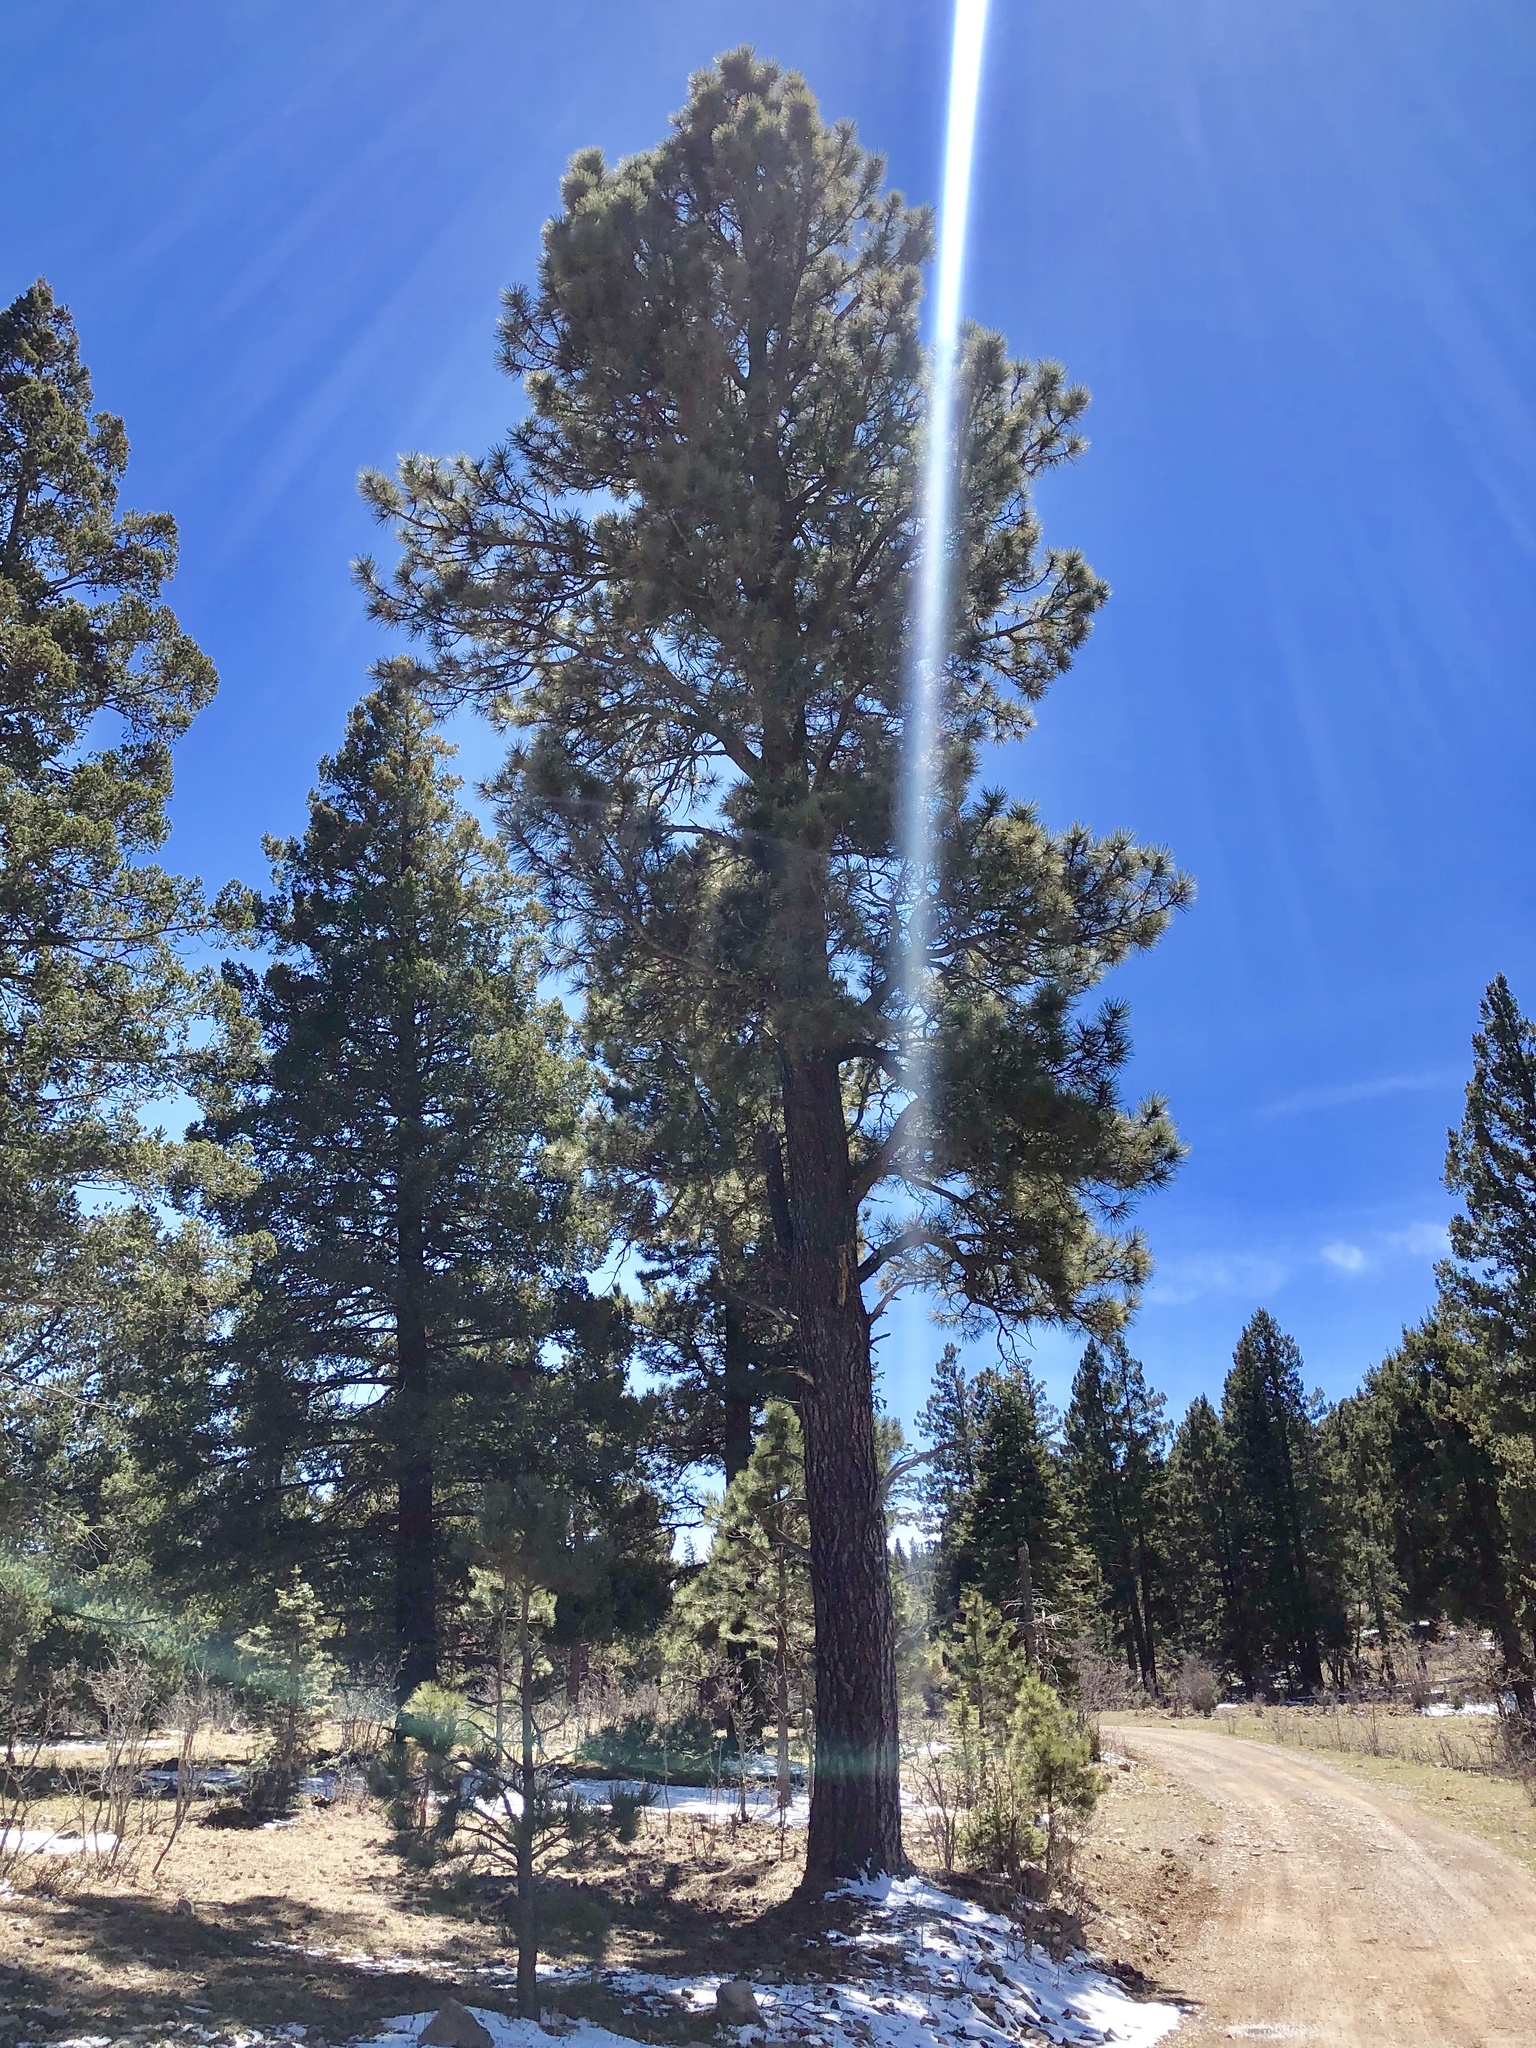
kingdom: Plantae
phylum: Tracheophyta
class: Pinopsida
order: Pinales
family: Pinaceae
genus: Pinus
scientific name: Pinus ponderosa
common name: Western yellow-pine
